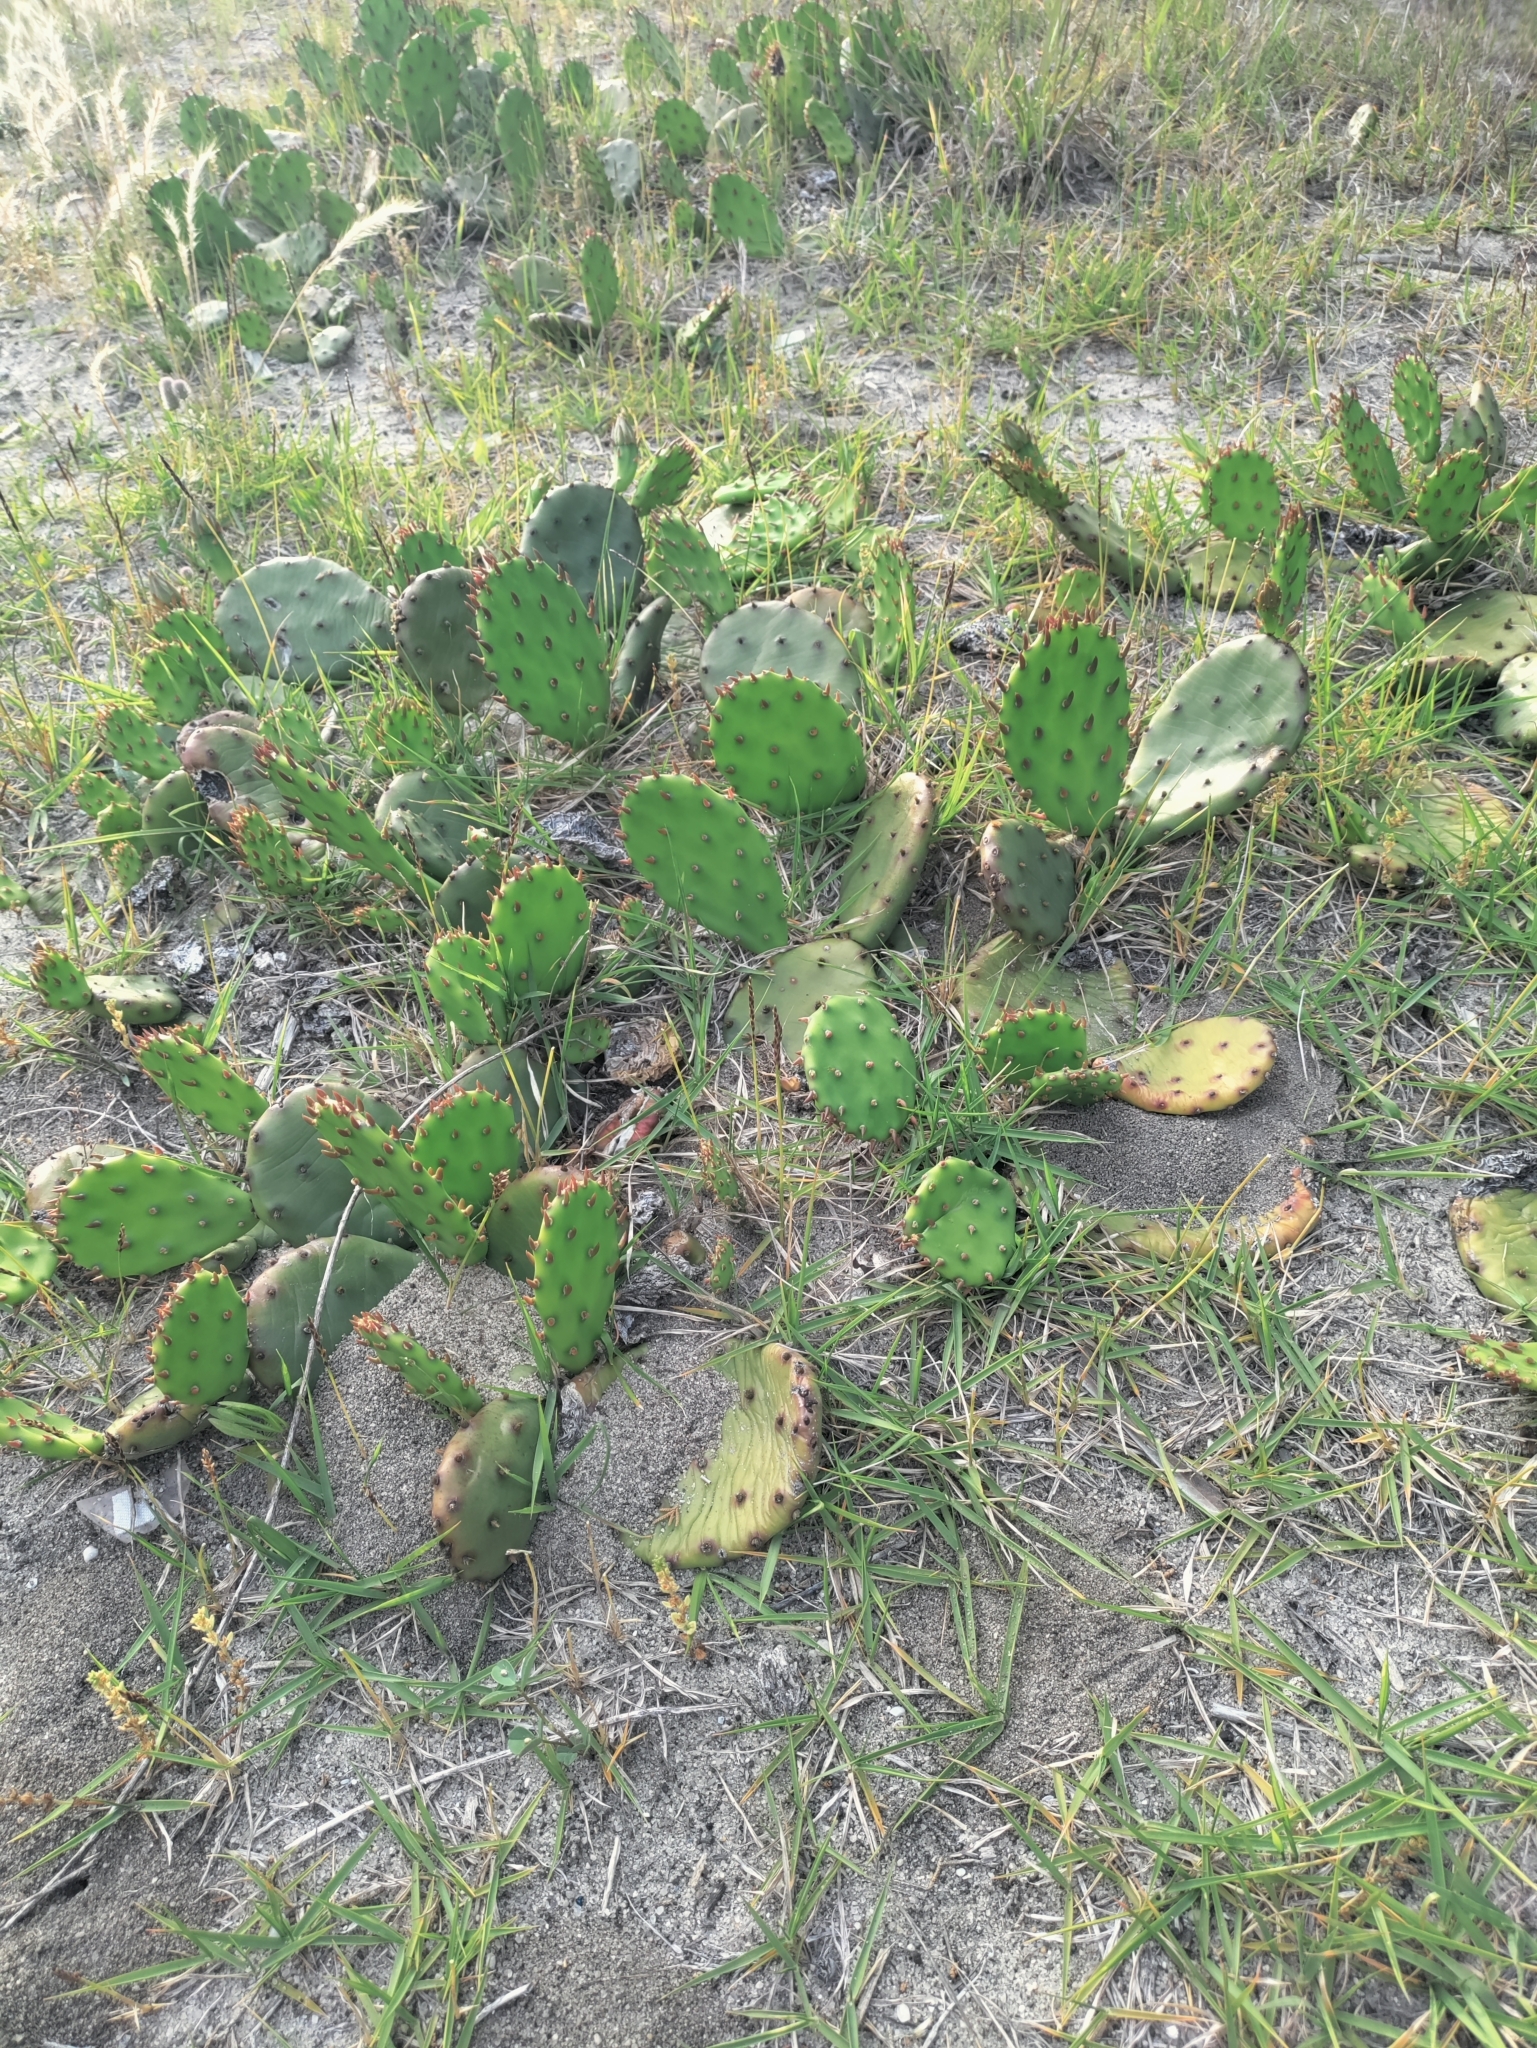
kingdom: Plantae
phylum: Tracheophyta
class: Magnoliopsida
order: Caryophyllales
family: Cactaceae
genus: Opuntia
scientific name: Opuntia humifusa
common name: Eastern prickly-pear
